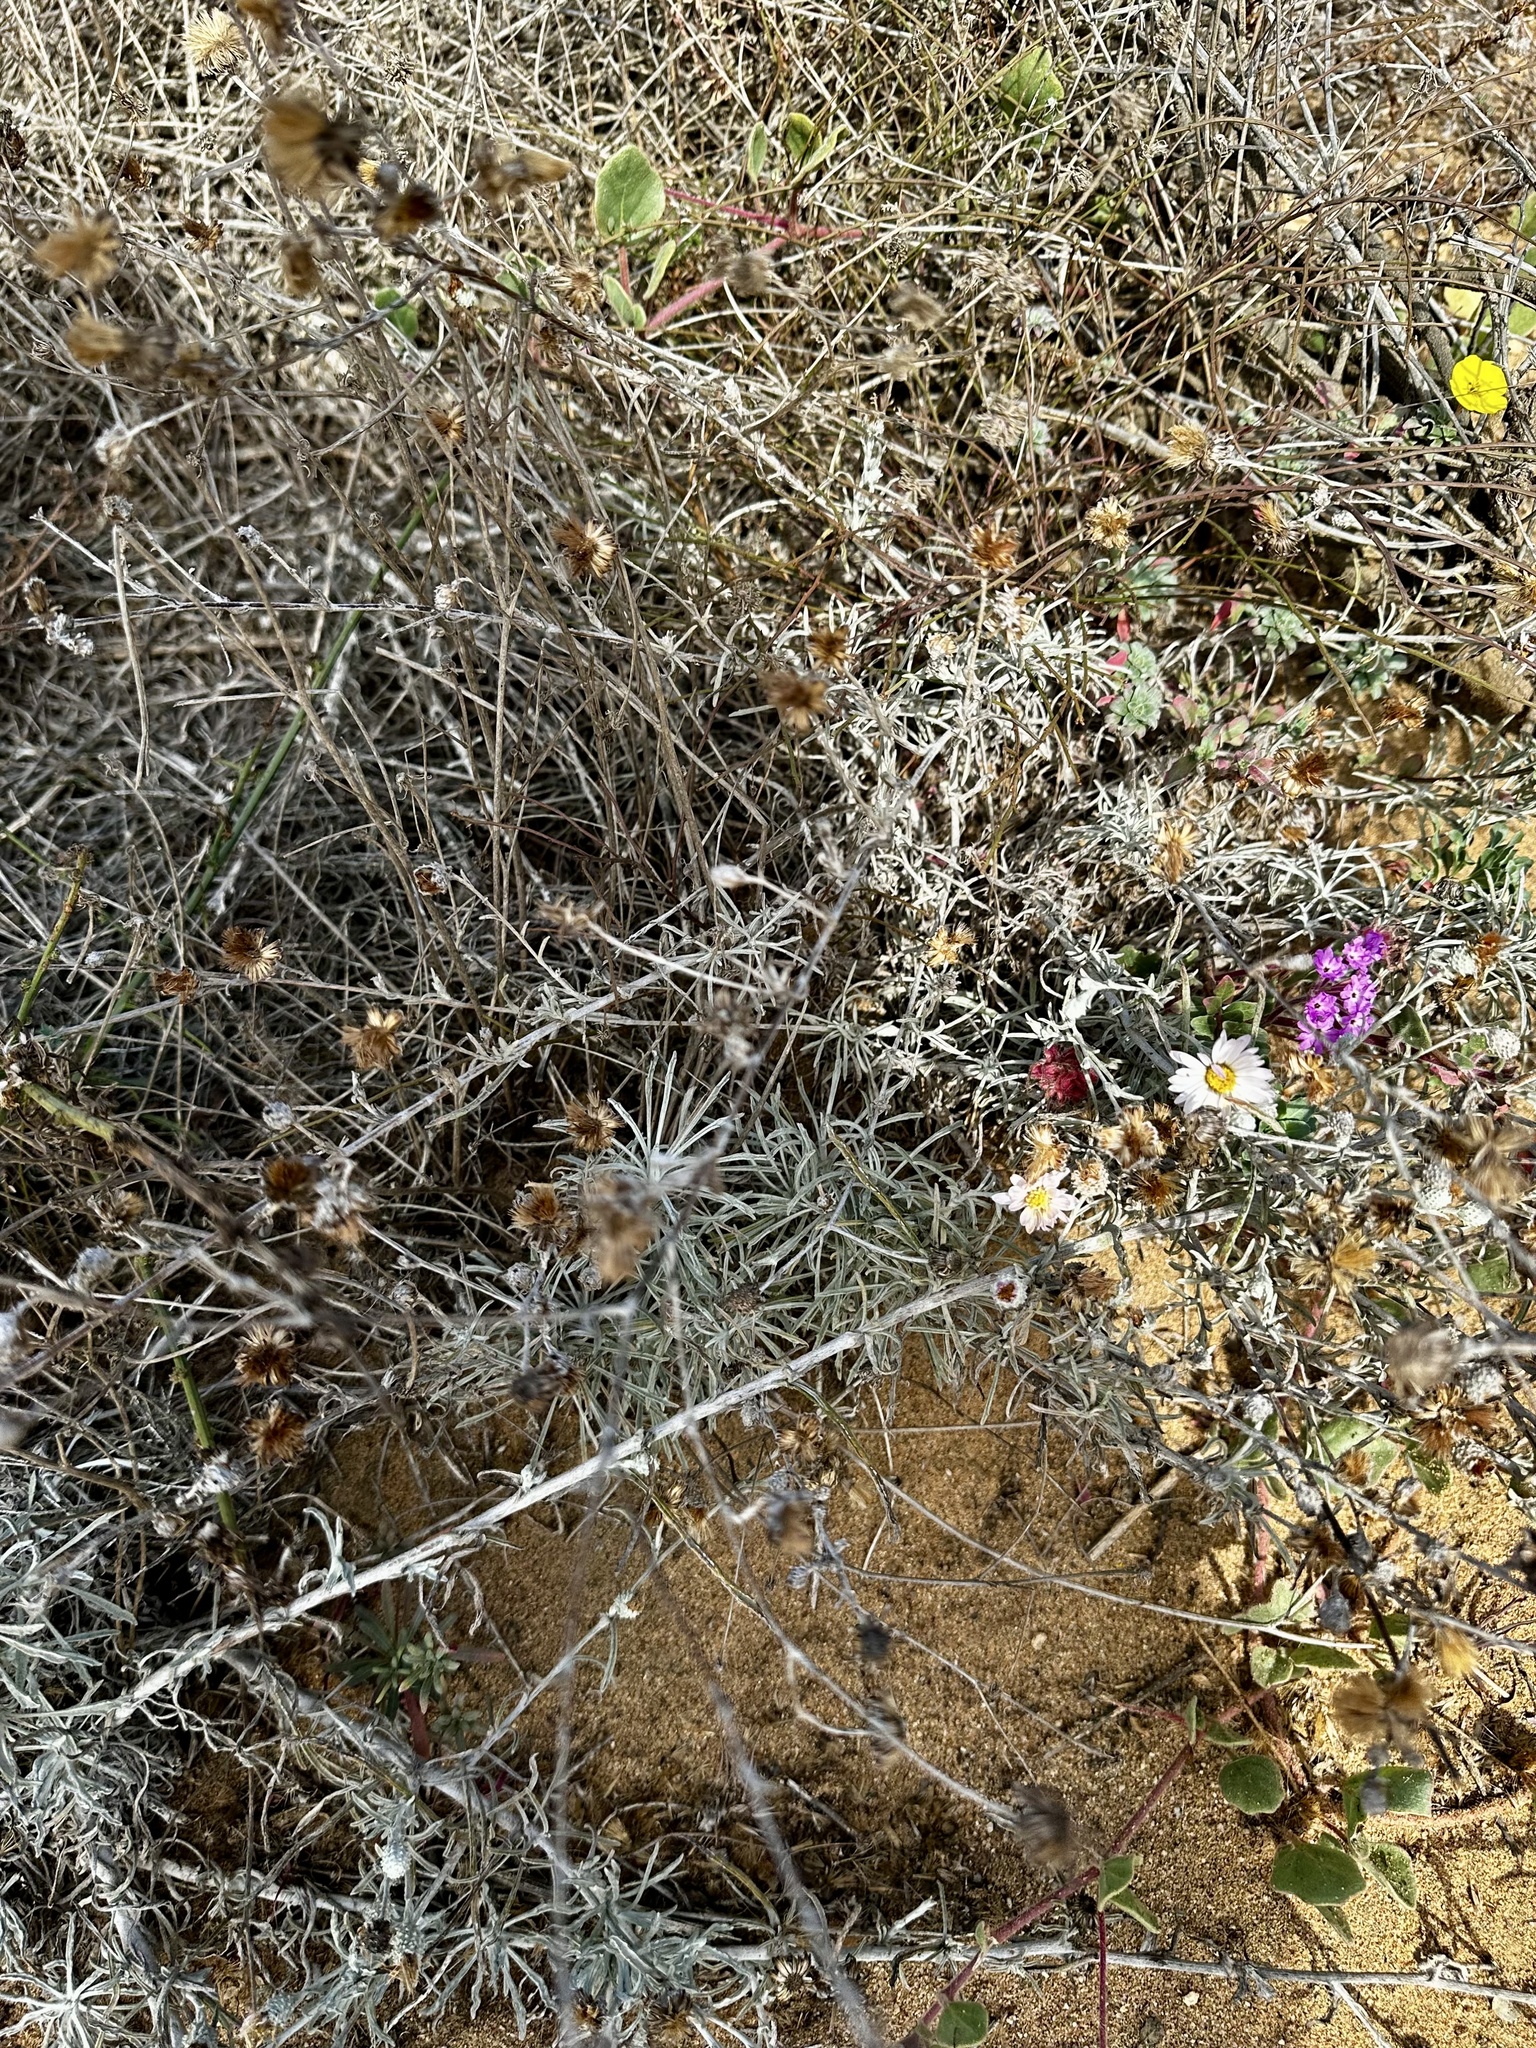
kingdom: Plantae
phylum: Tracheophyta
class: Magnoliopsida
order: Asterales
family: Asteraceae
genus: Corethrogyne
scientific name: Corethrogyne filaginifolia
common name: Sand-aster
